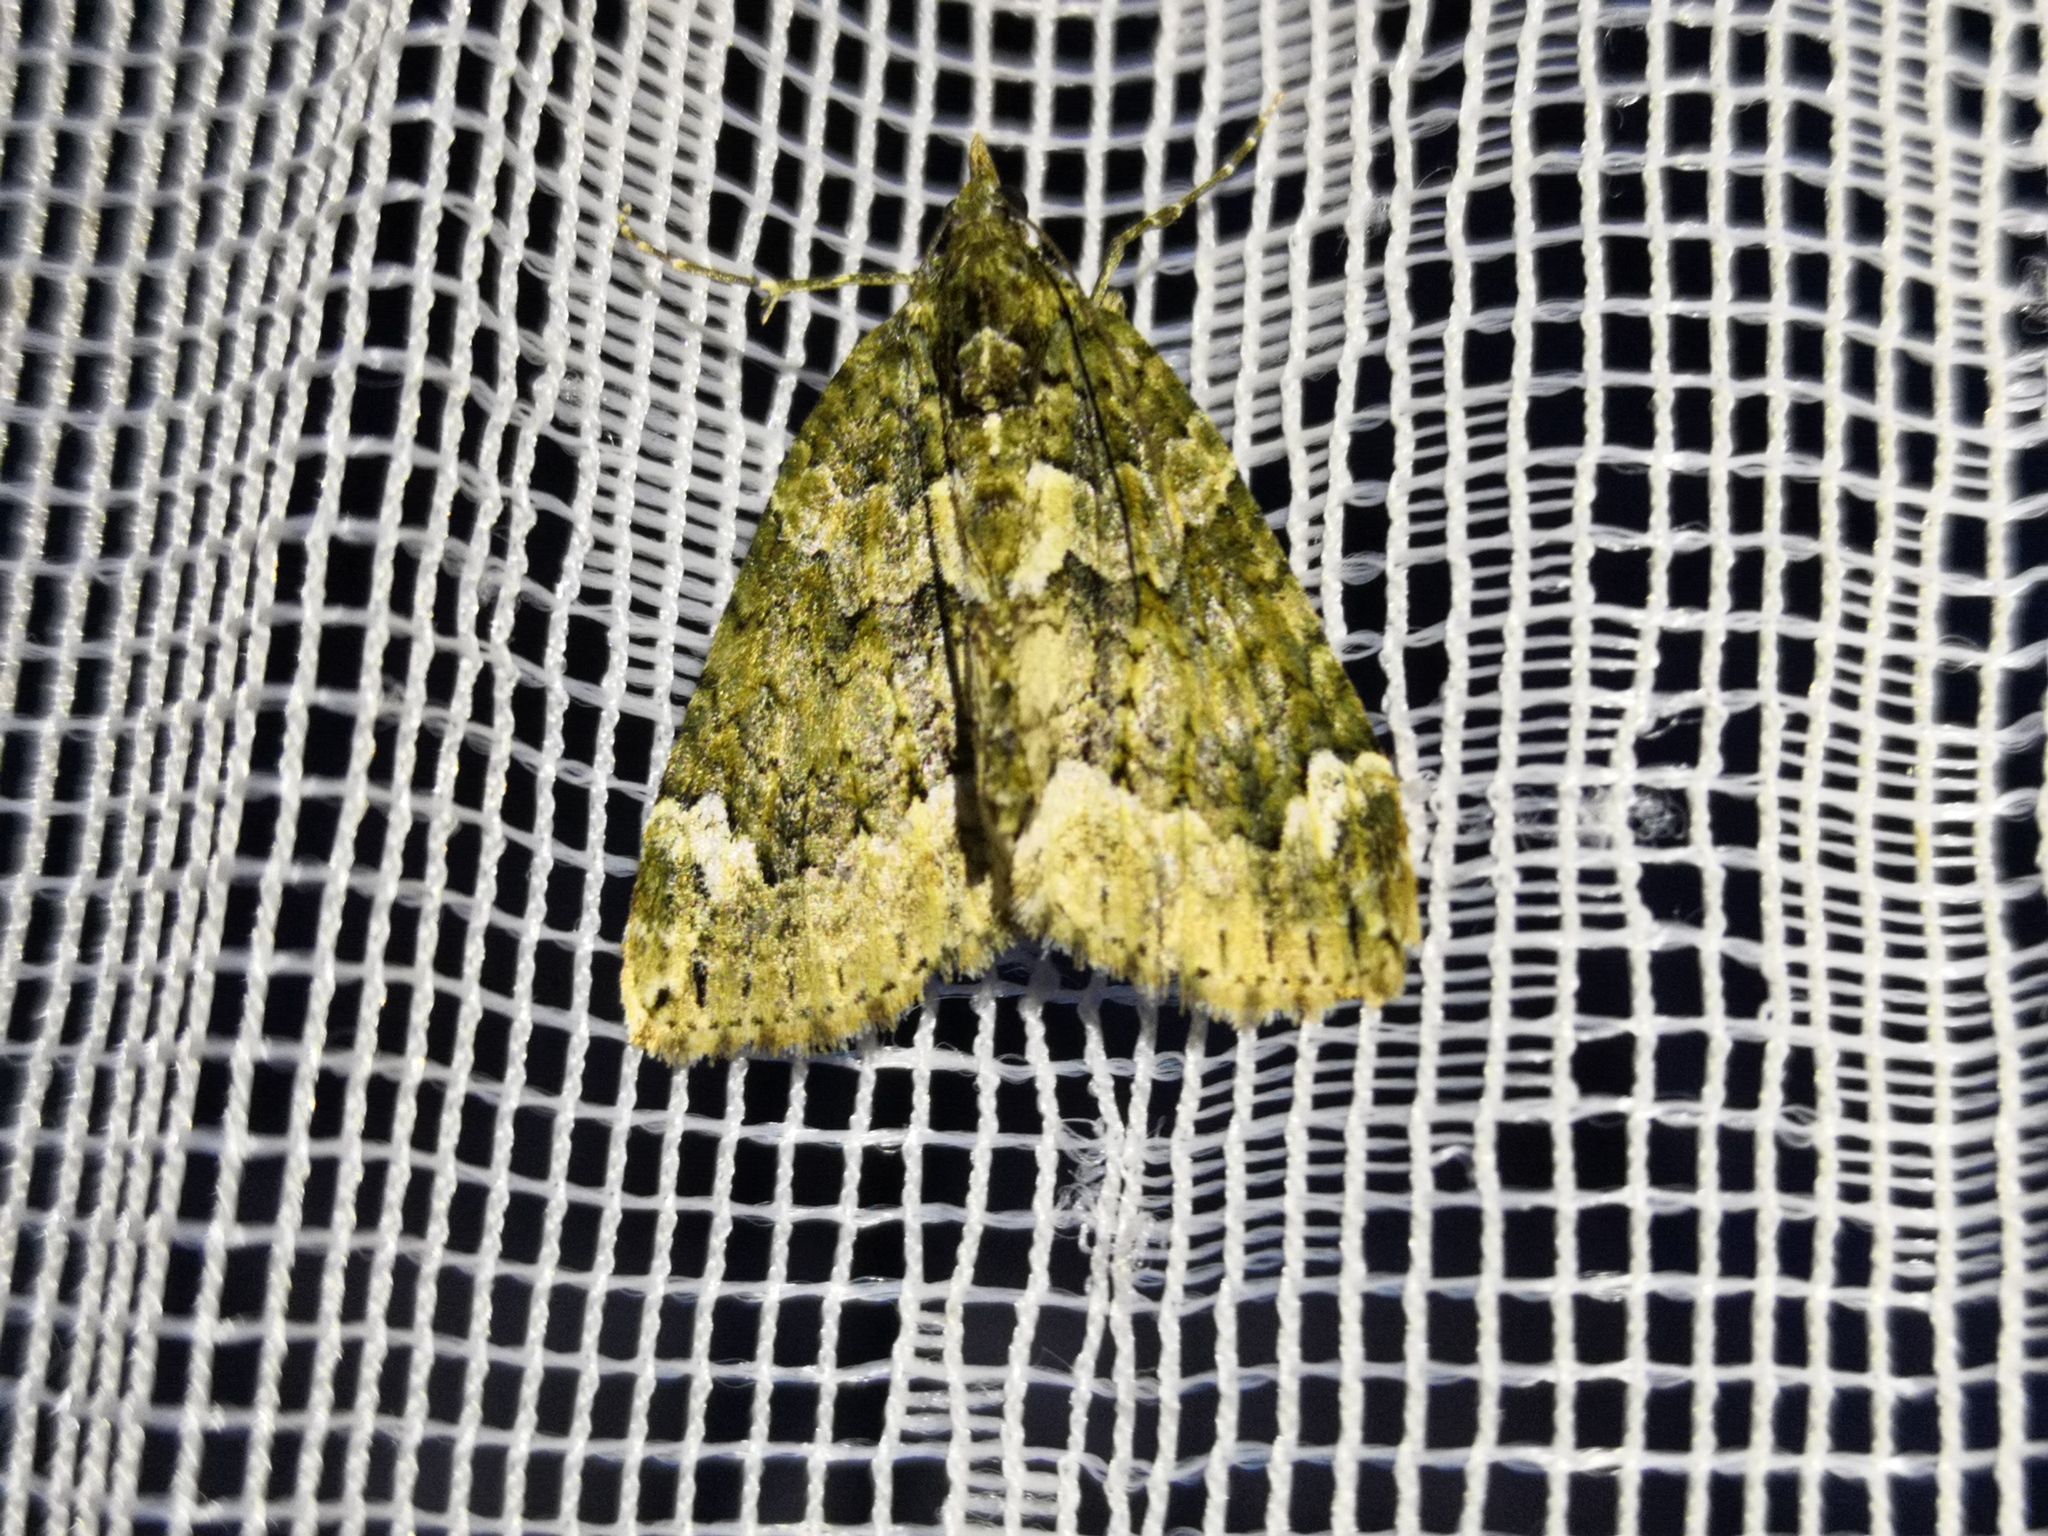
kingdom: Animalia
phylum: Arthropoda
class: Insecta
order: Lepidoptera
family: Geometridae
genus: Chloroclysta
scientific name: Chloroclysta siterata
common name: Red-green carpet
